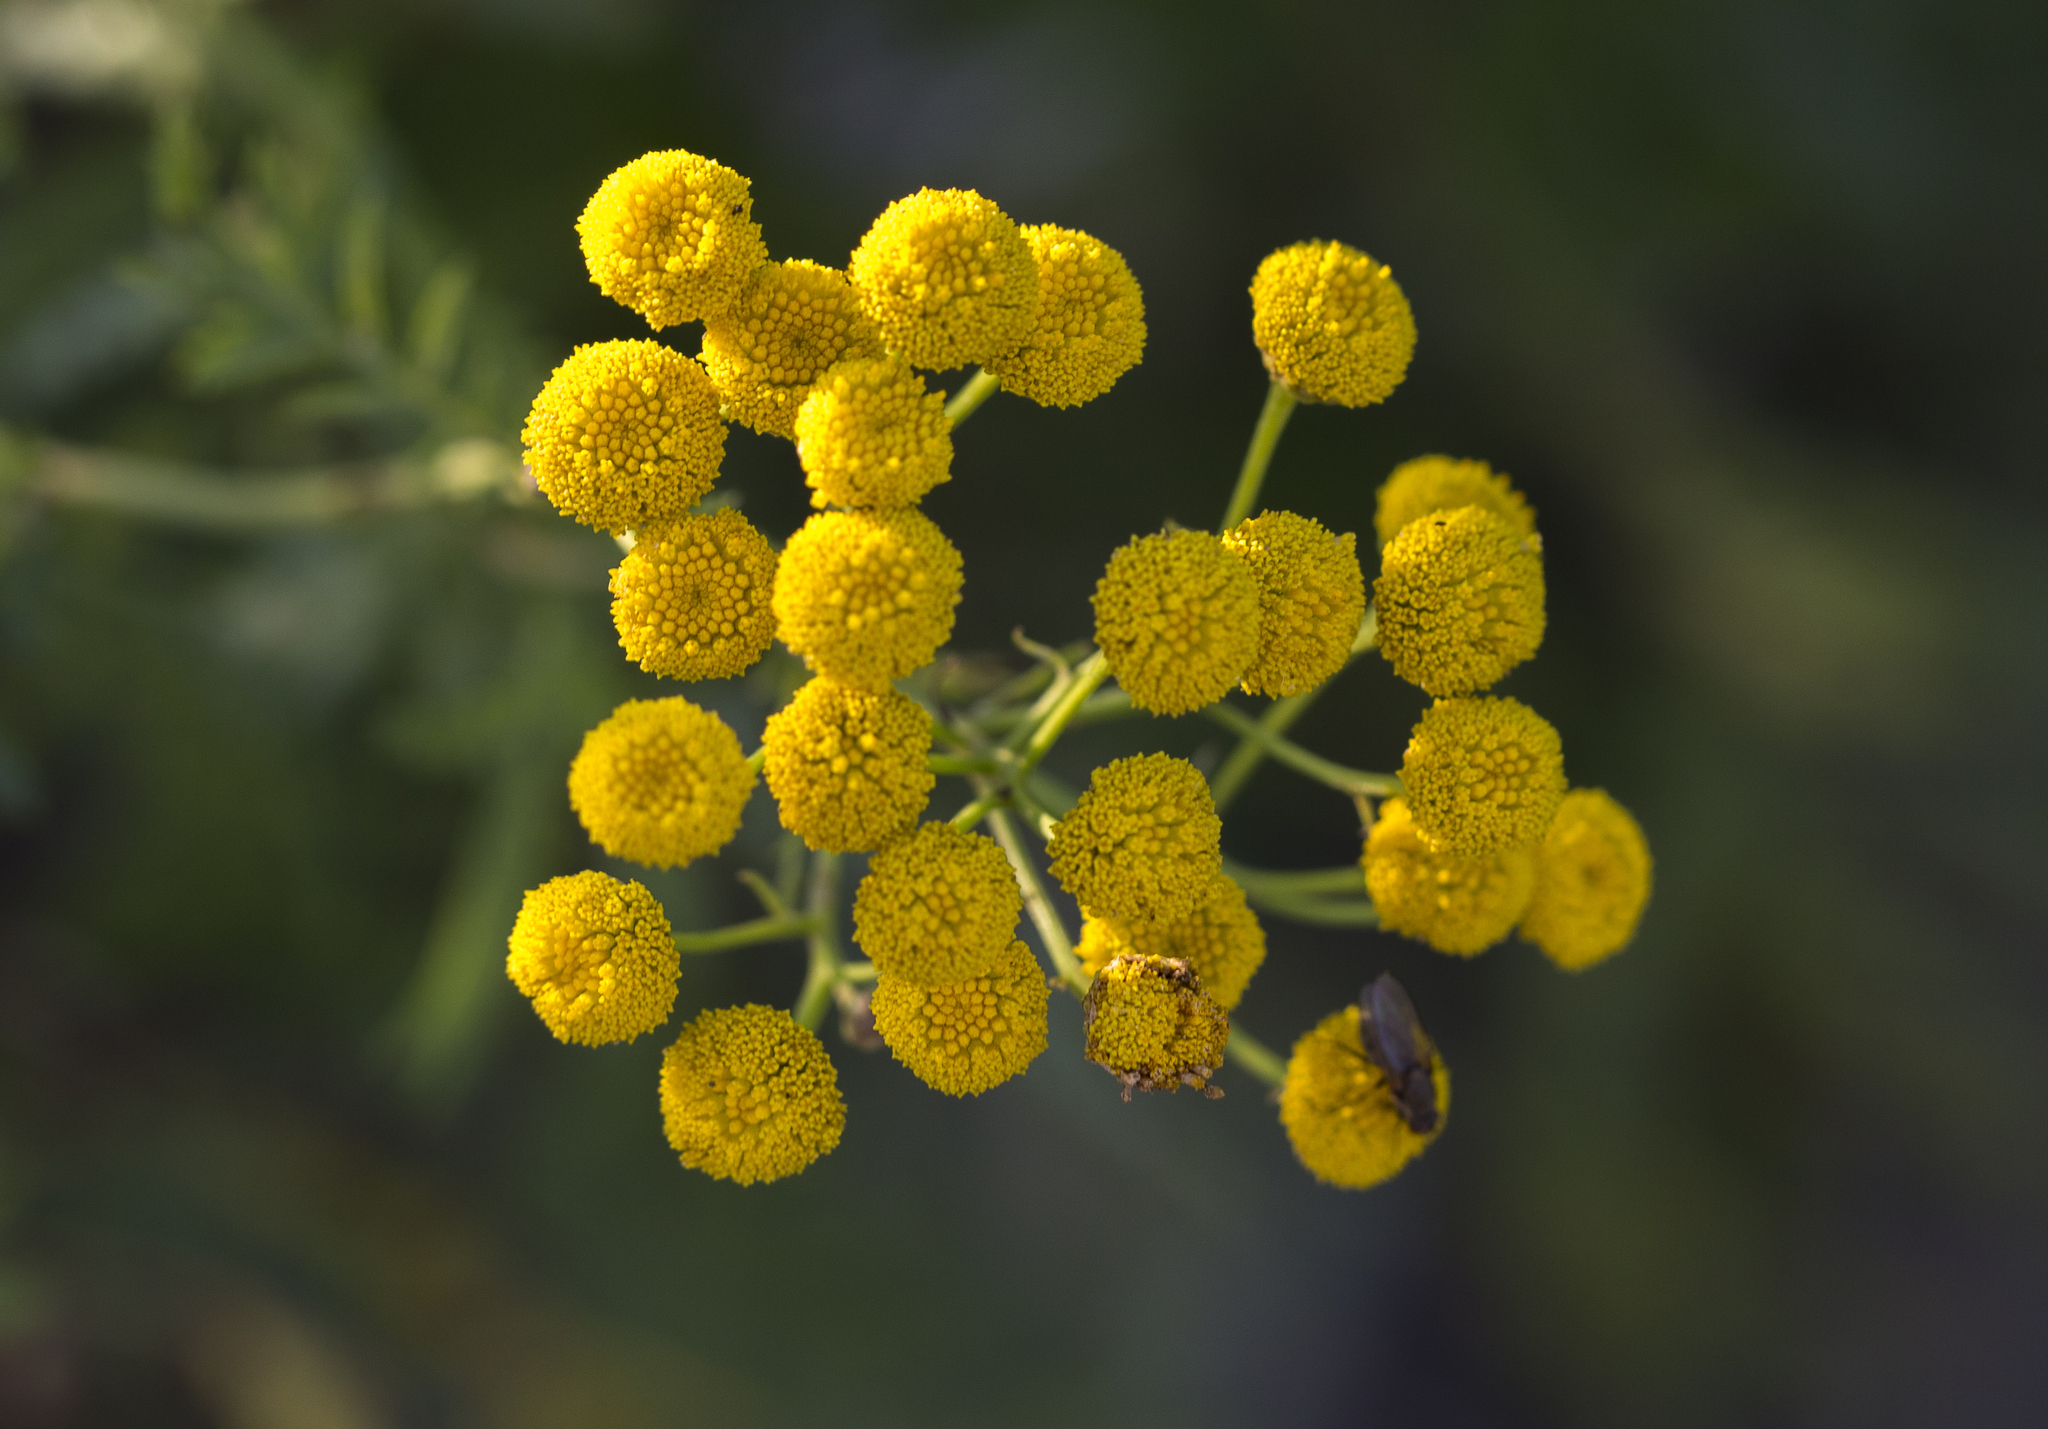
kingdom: Plantae
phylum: Tracheophyta
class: Magnoliopsida
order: Asterales
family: Asteraceae
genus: Tanacetum
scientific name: Tanacetum vulgare
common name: Common tansy
